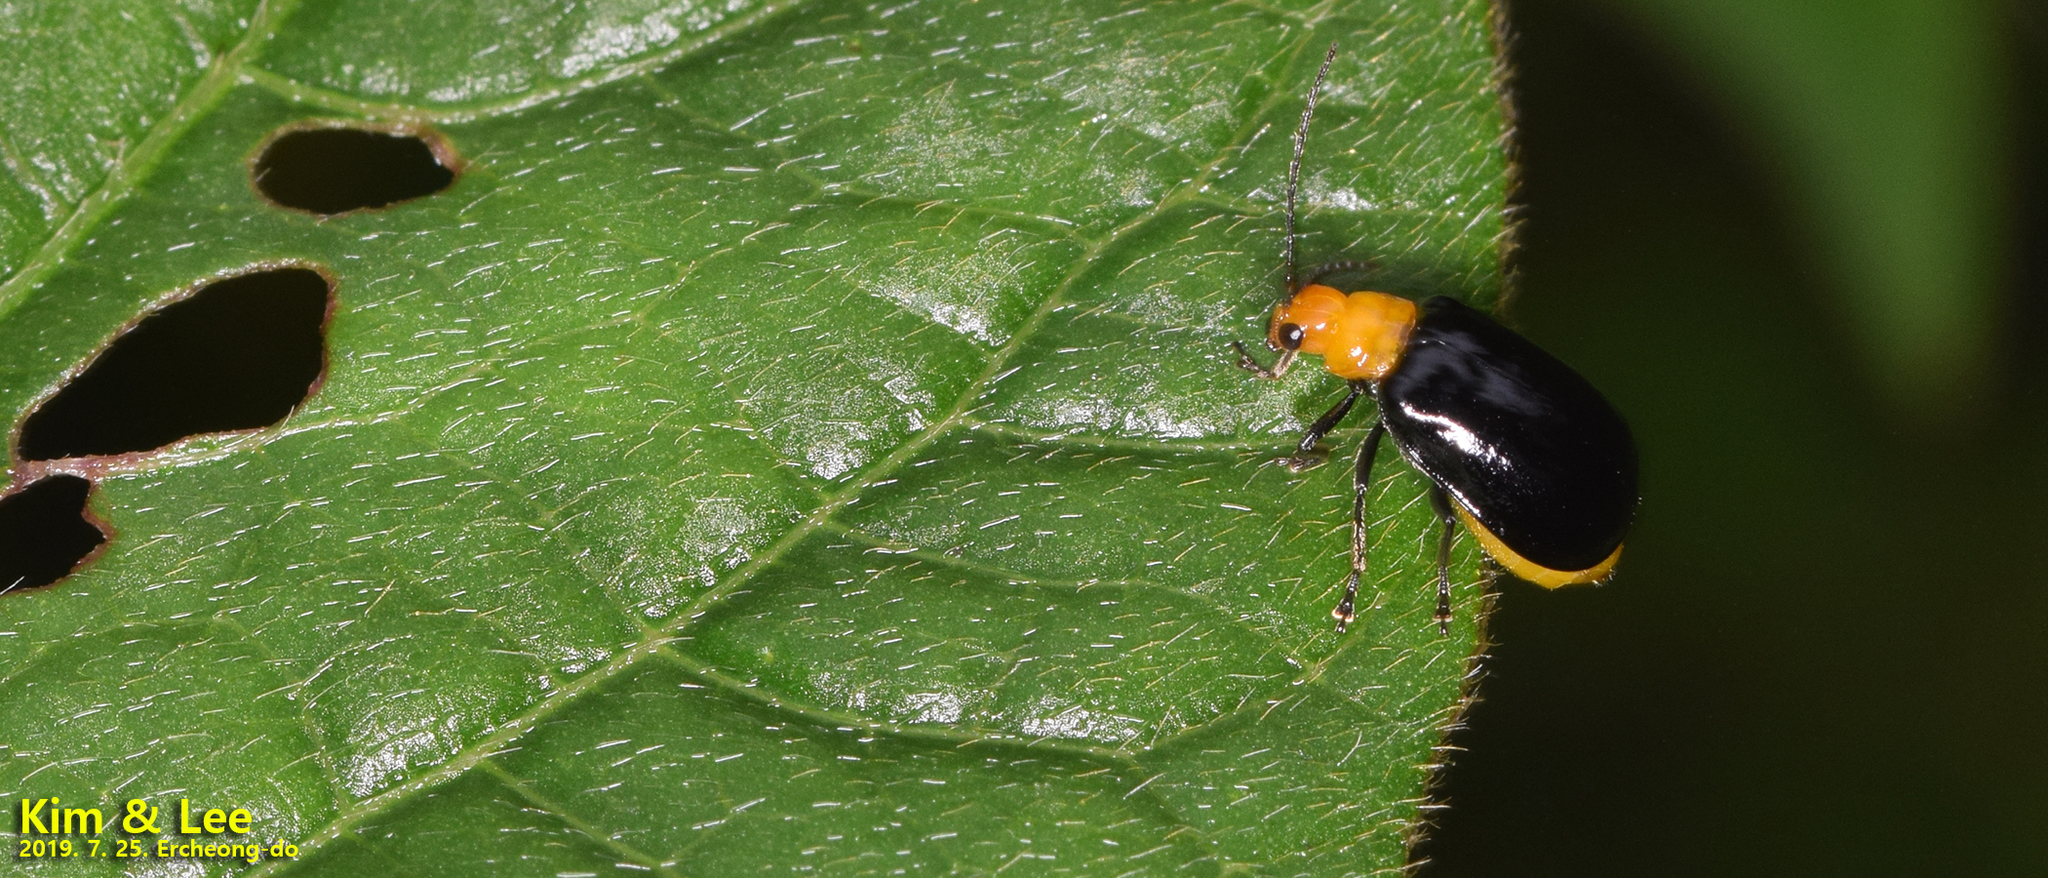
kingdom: Animalia
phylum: Arthropoda
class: Insecta
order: Coleoptera
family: Chrysomelidae
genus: Aulacophora
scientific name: Aulacophora nigripennis
